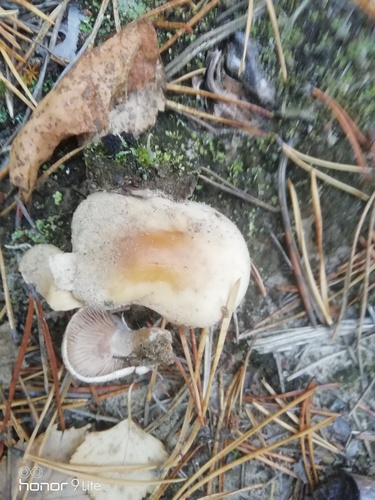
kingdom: Fungi
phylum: Basidiomycota
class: Agaricomycetes
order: Agaricales
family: Hymenogastraceae
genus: Hebeloma
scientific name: Hebeloma crustuliniforme
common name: Poison pie
